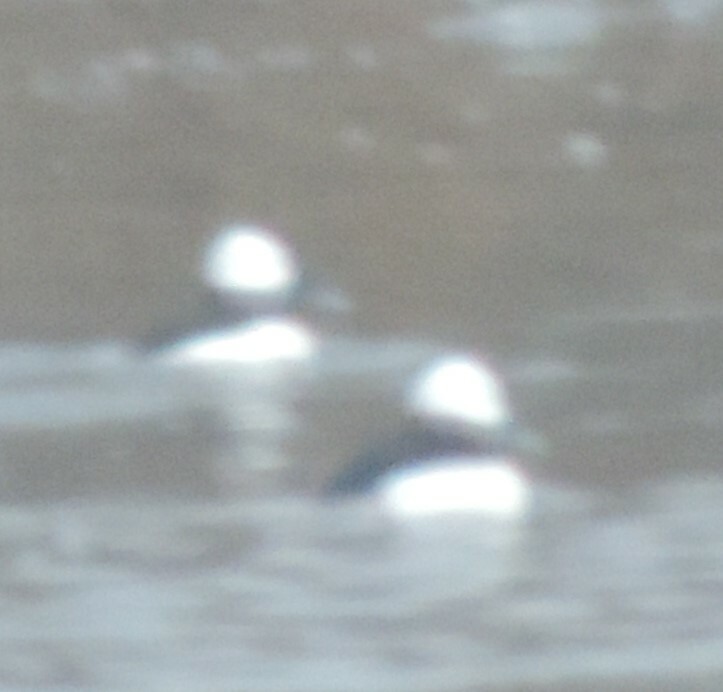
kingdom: Animalia
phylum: Chordata
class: Aves
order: Anseriformes
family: Anatidae
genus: Bucephala
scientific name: Bucephala albeola
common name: Bufflehead
